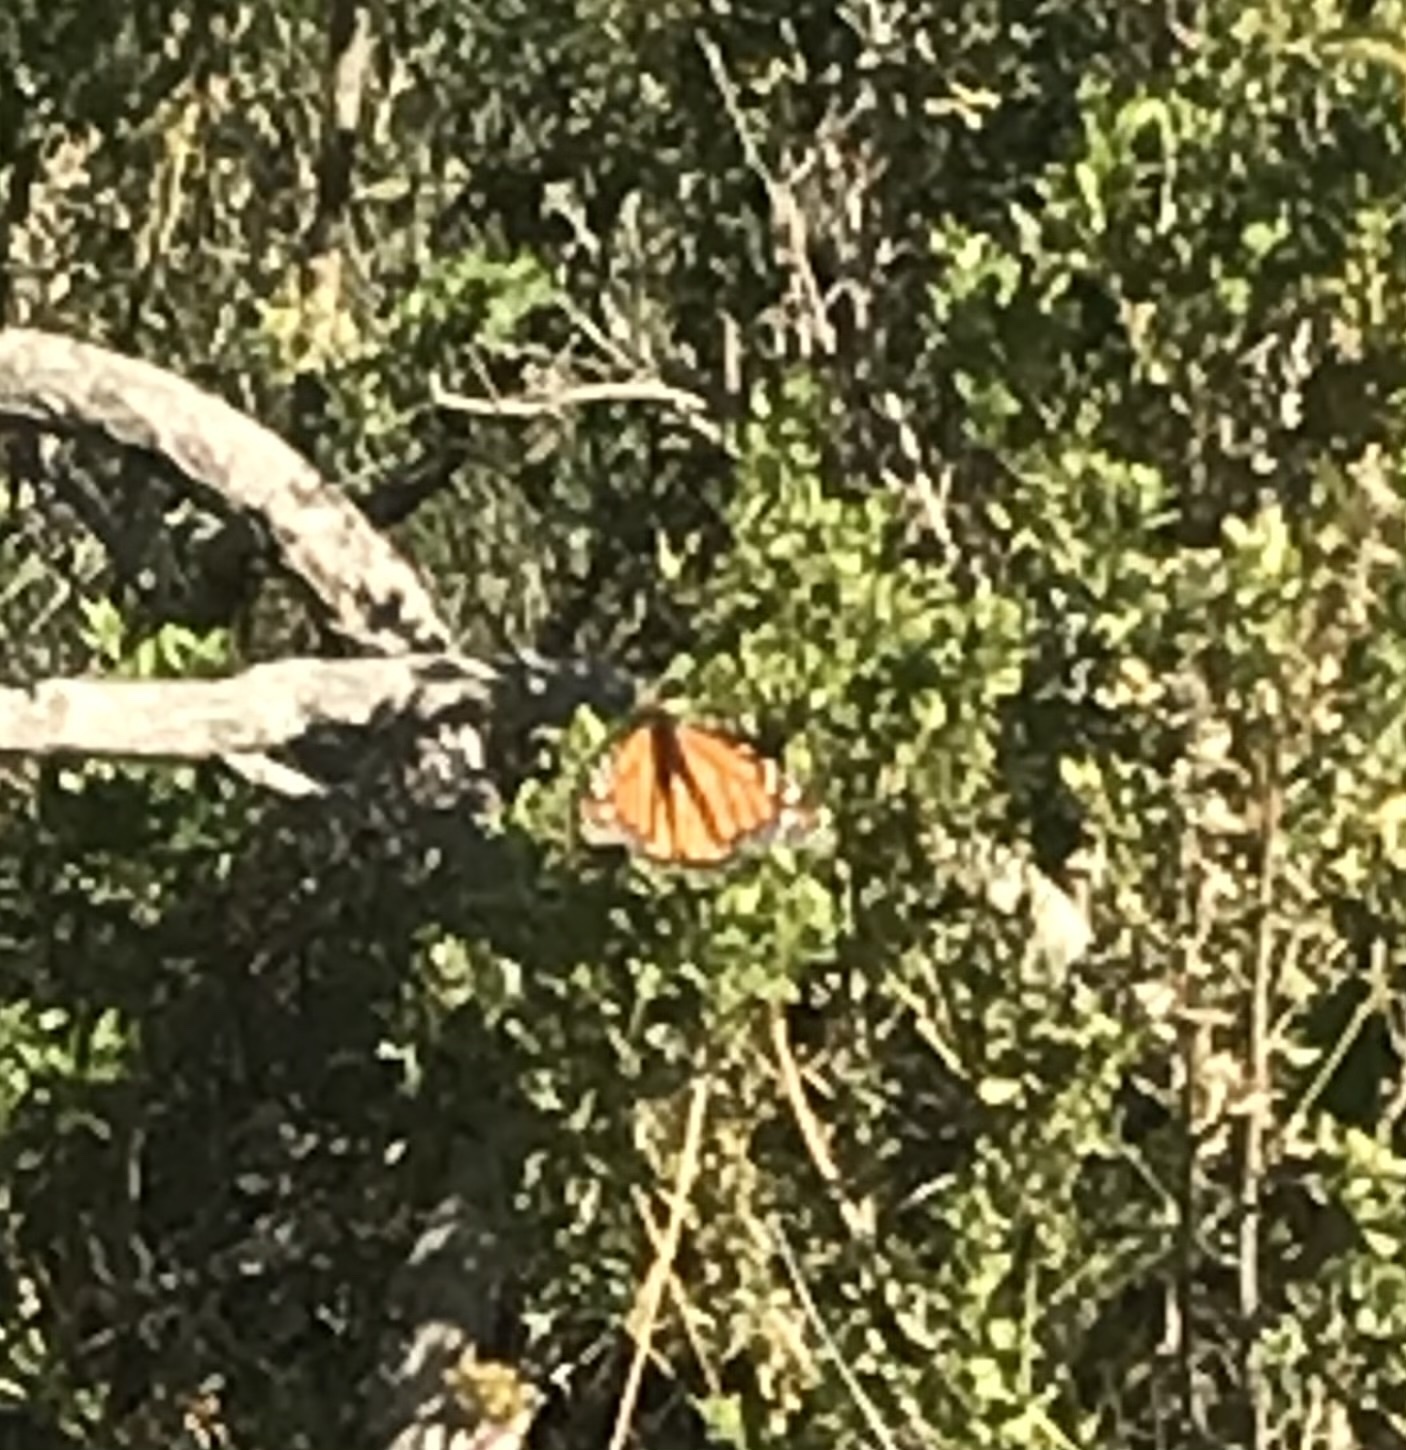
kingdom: Animalia
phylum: Arthropoda
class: Insecta
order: Lepidoptera
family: Nymphalidae
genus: Danaus
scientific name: Danaus plexippus
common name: Monarch
